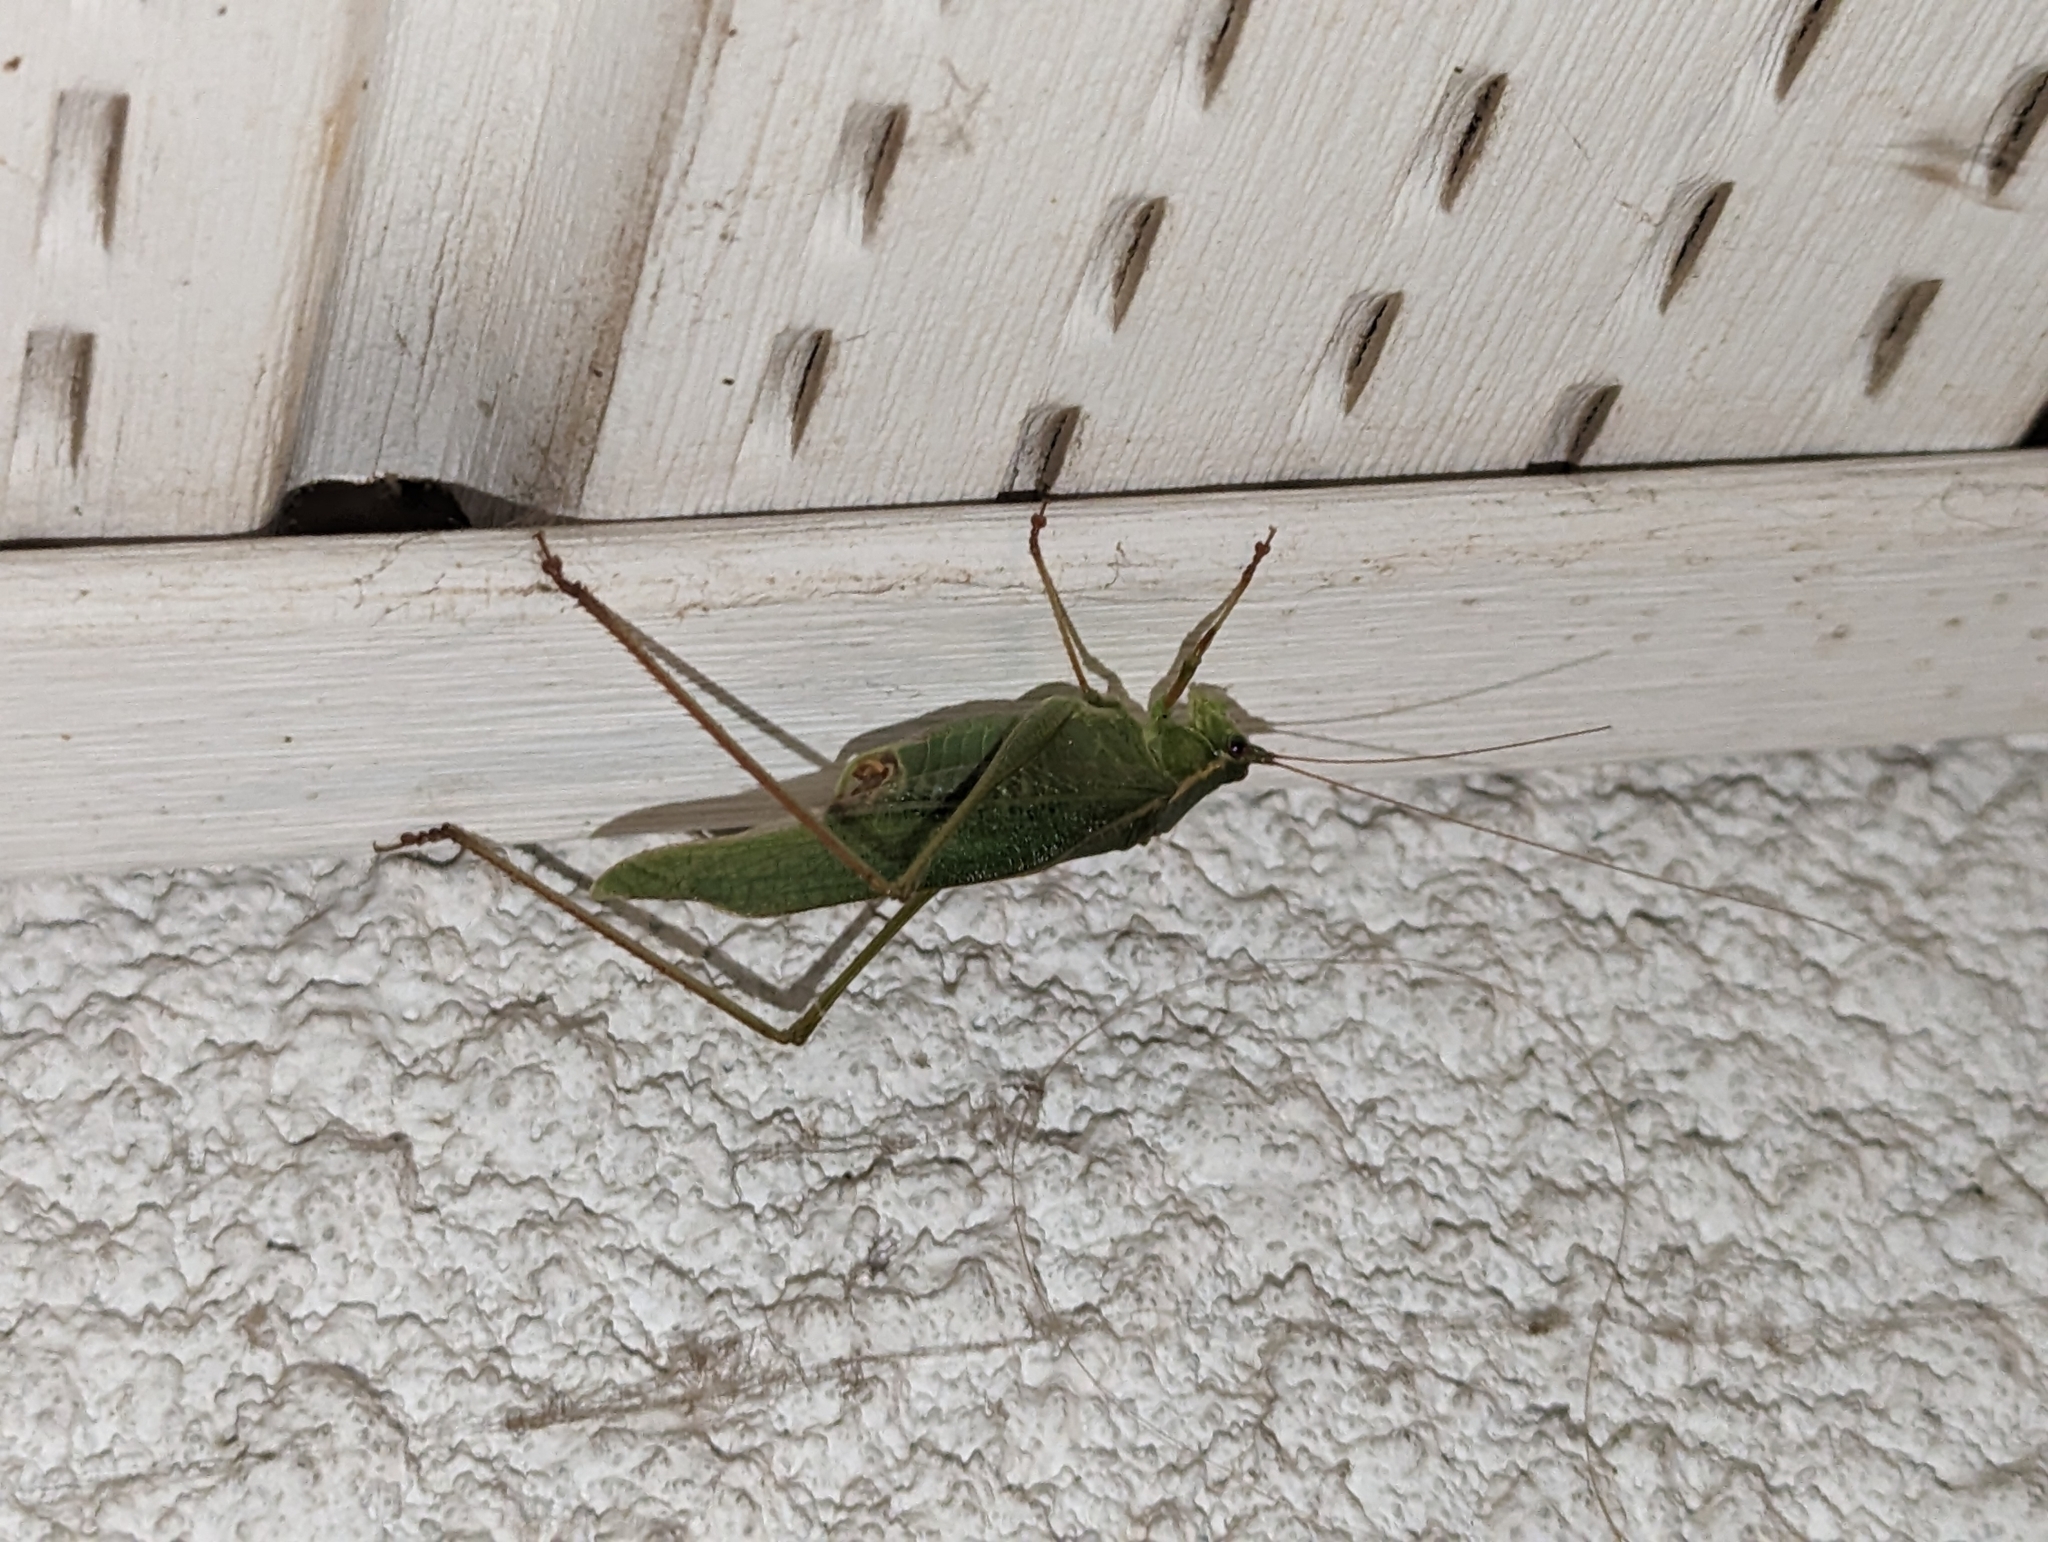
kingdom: Animalia
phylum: Arthropoda
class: Insecta
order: Orthoptera
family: Tettigoniidae
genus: Scudderia
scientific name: Scudderia furcata
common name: Fork-tailed bush katydid
